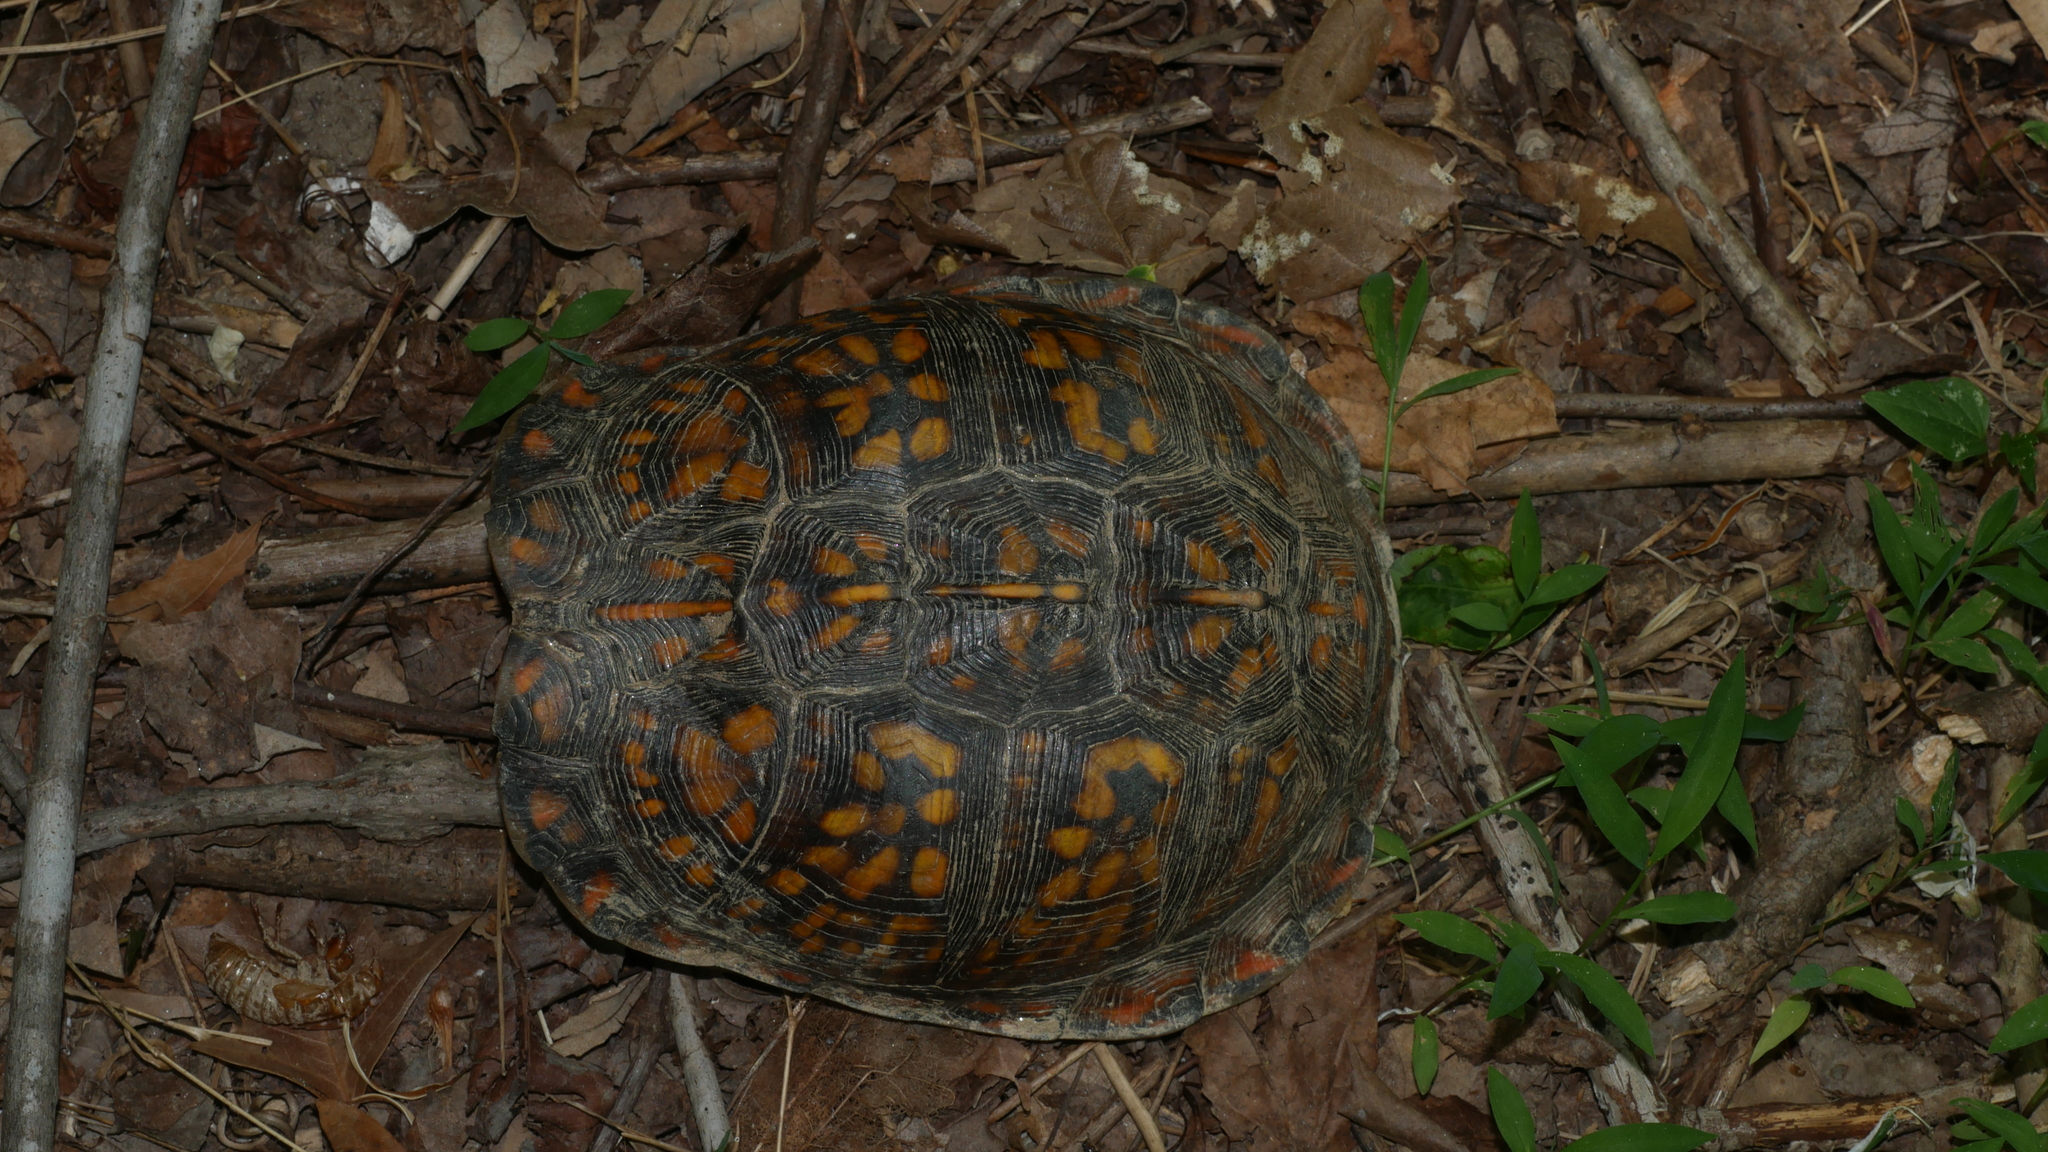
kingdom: Animalia
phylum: Chordata
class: Testudines
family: Emydidae
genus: Terrapene
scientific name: Terrapene carolina
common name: Common box turtle
